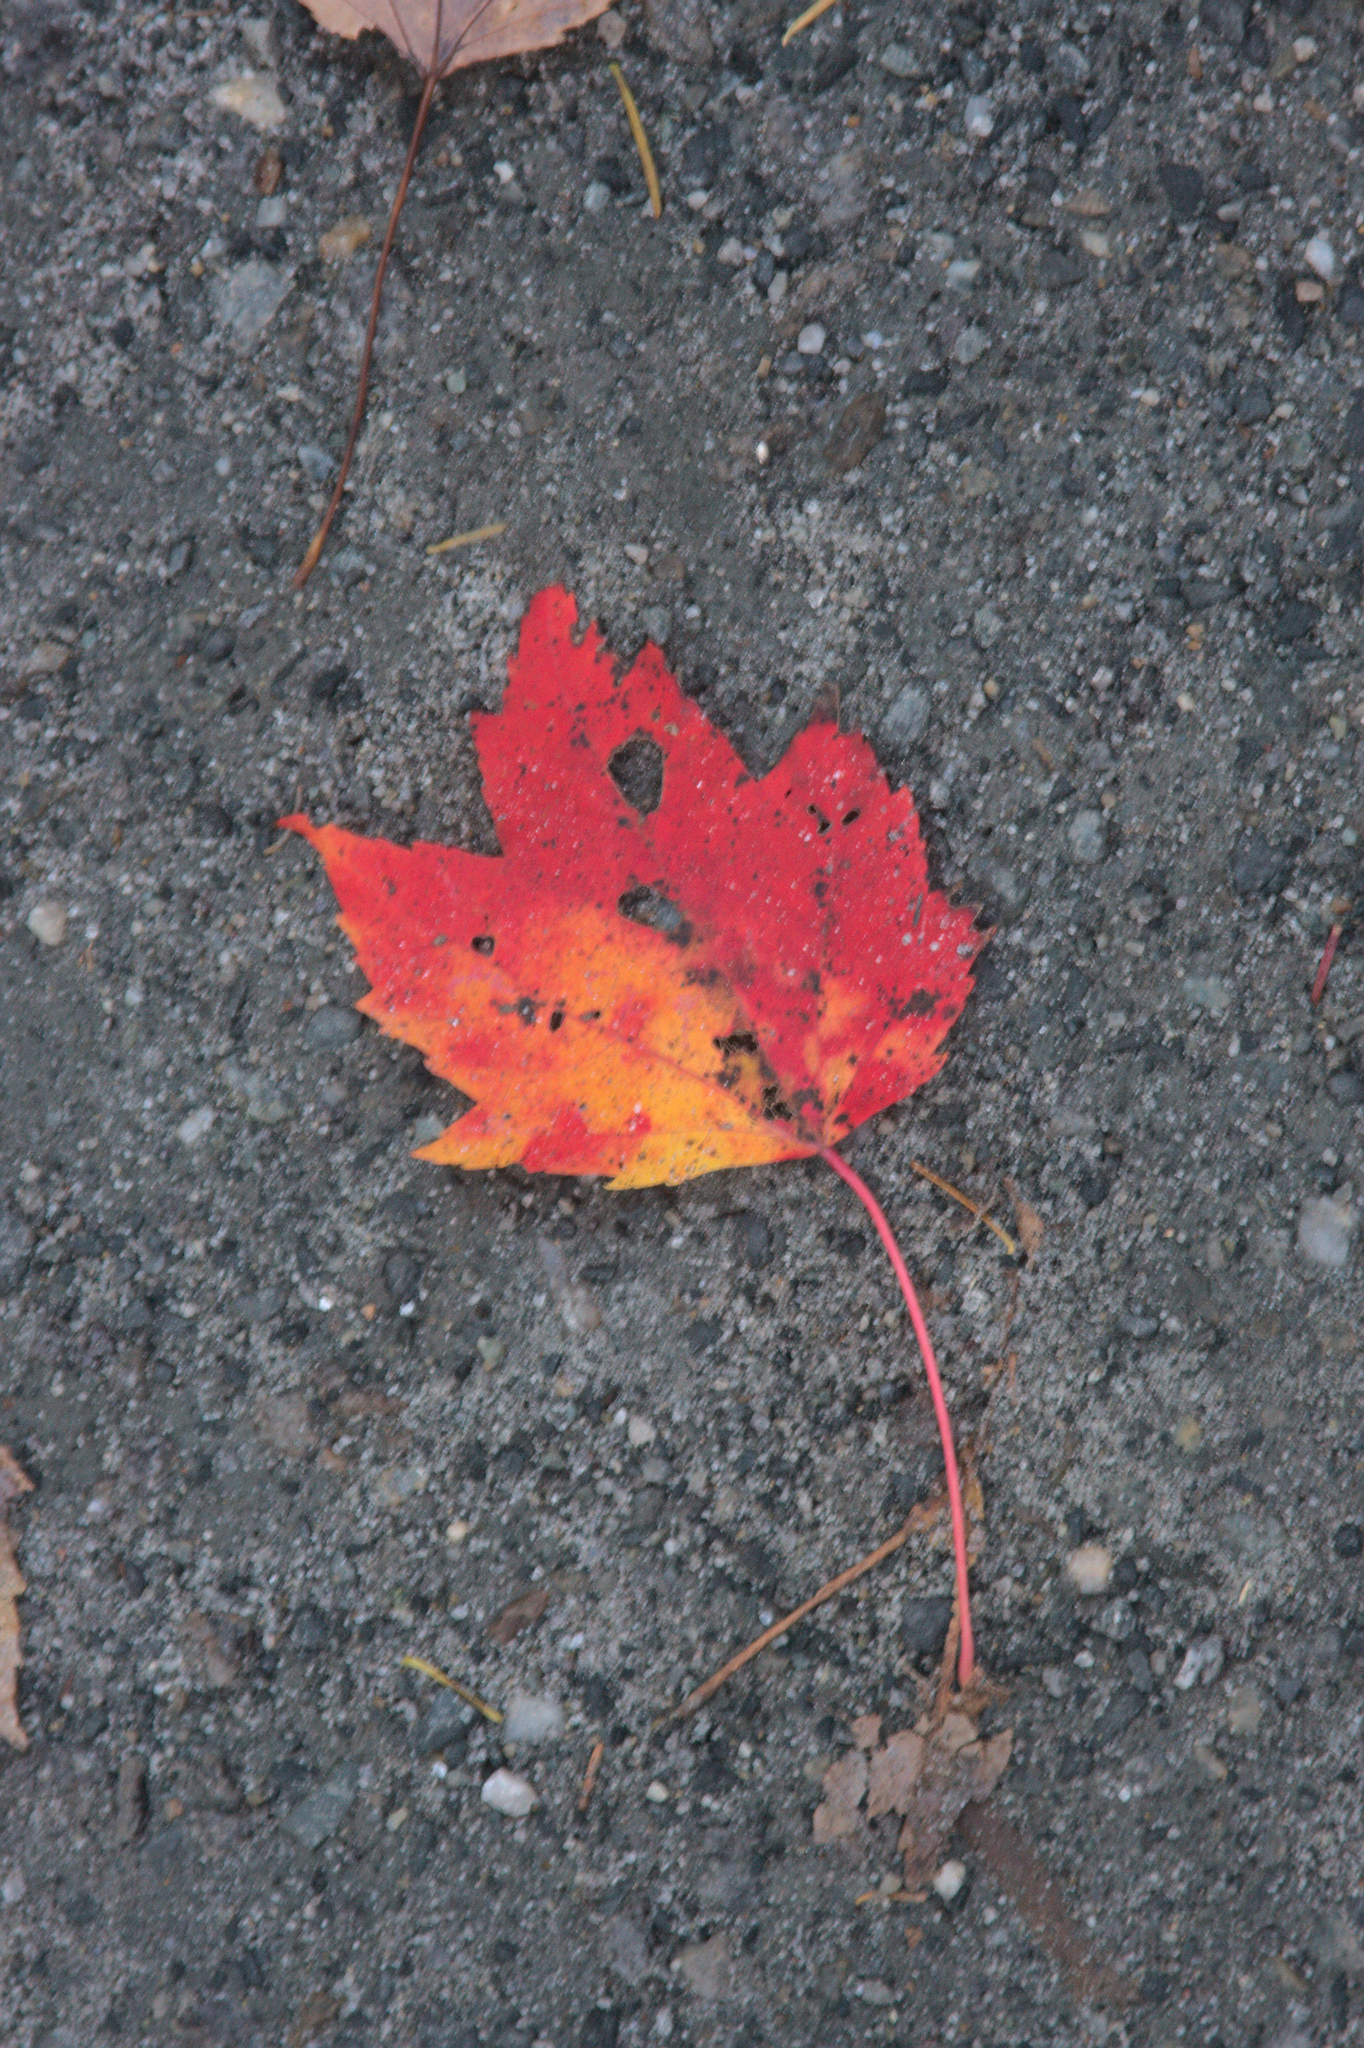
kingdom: Plantae
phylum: Tracheophyta
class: Magnoliopsida
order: Sapindales
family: Sapindaceae
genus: Acer
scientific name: Acer rubrum
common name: Red maple
